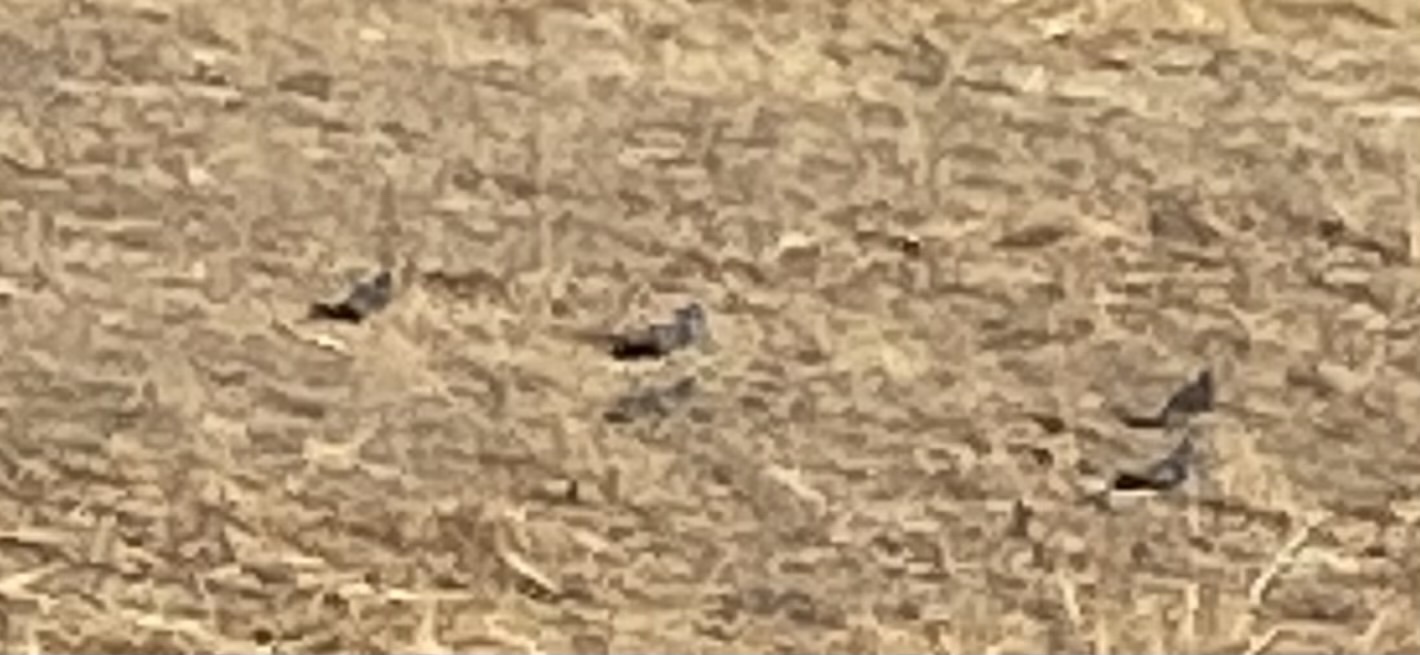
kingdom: Animalia
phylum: Chordata
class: Aves
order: Columbiformes
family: Columbidae
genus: Columba
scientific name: Columba livia
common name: Rock pigeon
